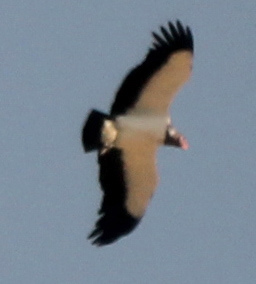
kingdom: Animalia
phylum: Chordata
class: Aves
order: Accipitriformes
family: Cathartidae
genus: Sarcoramphus
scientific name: Sarcoramphus papa
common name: King vulture
